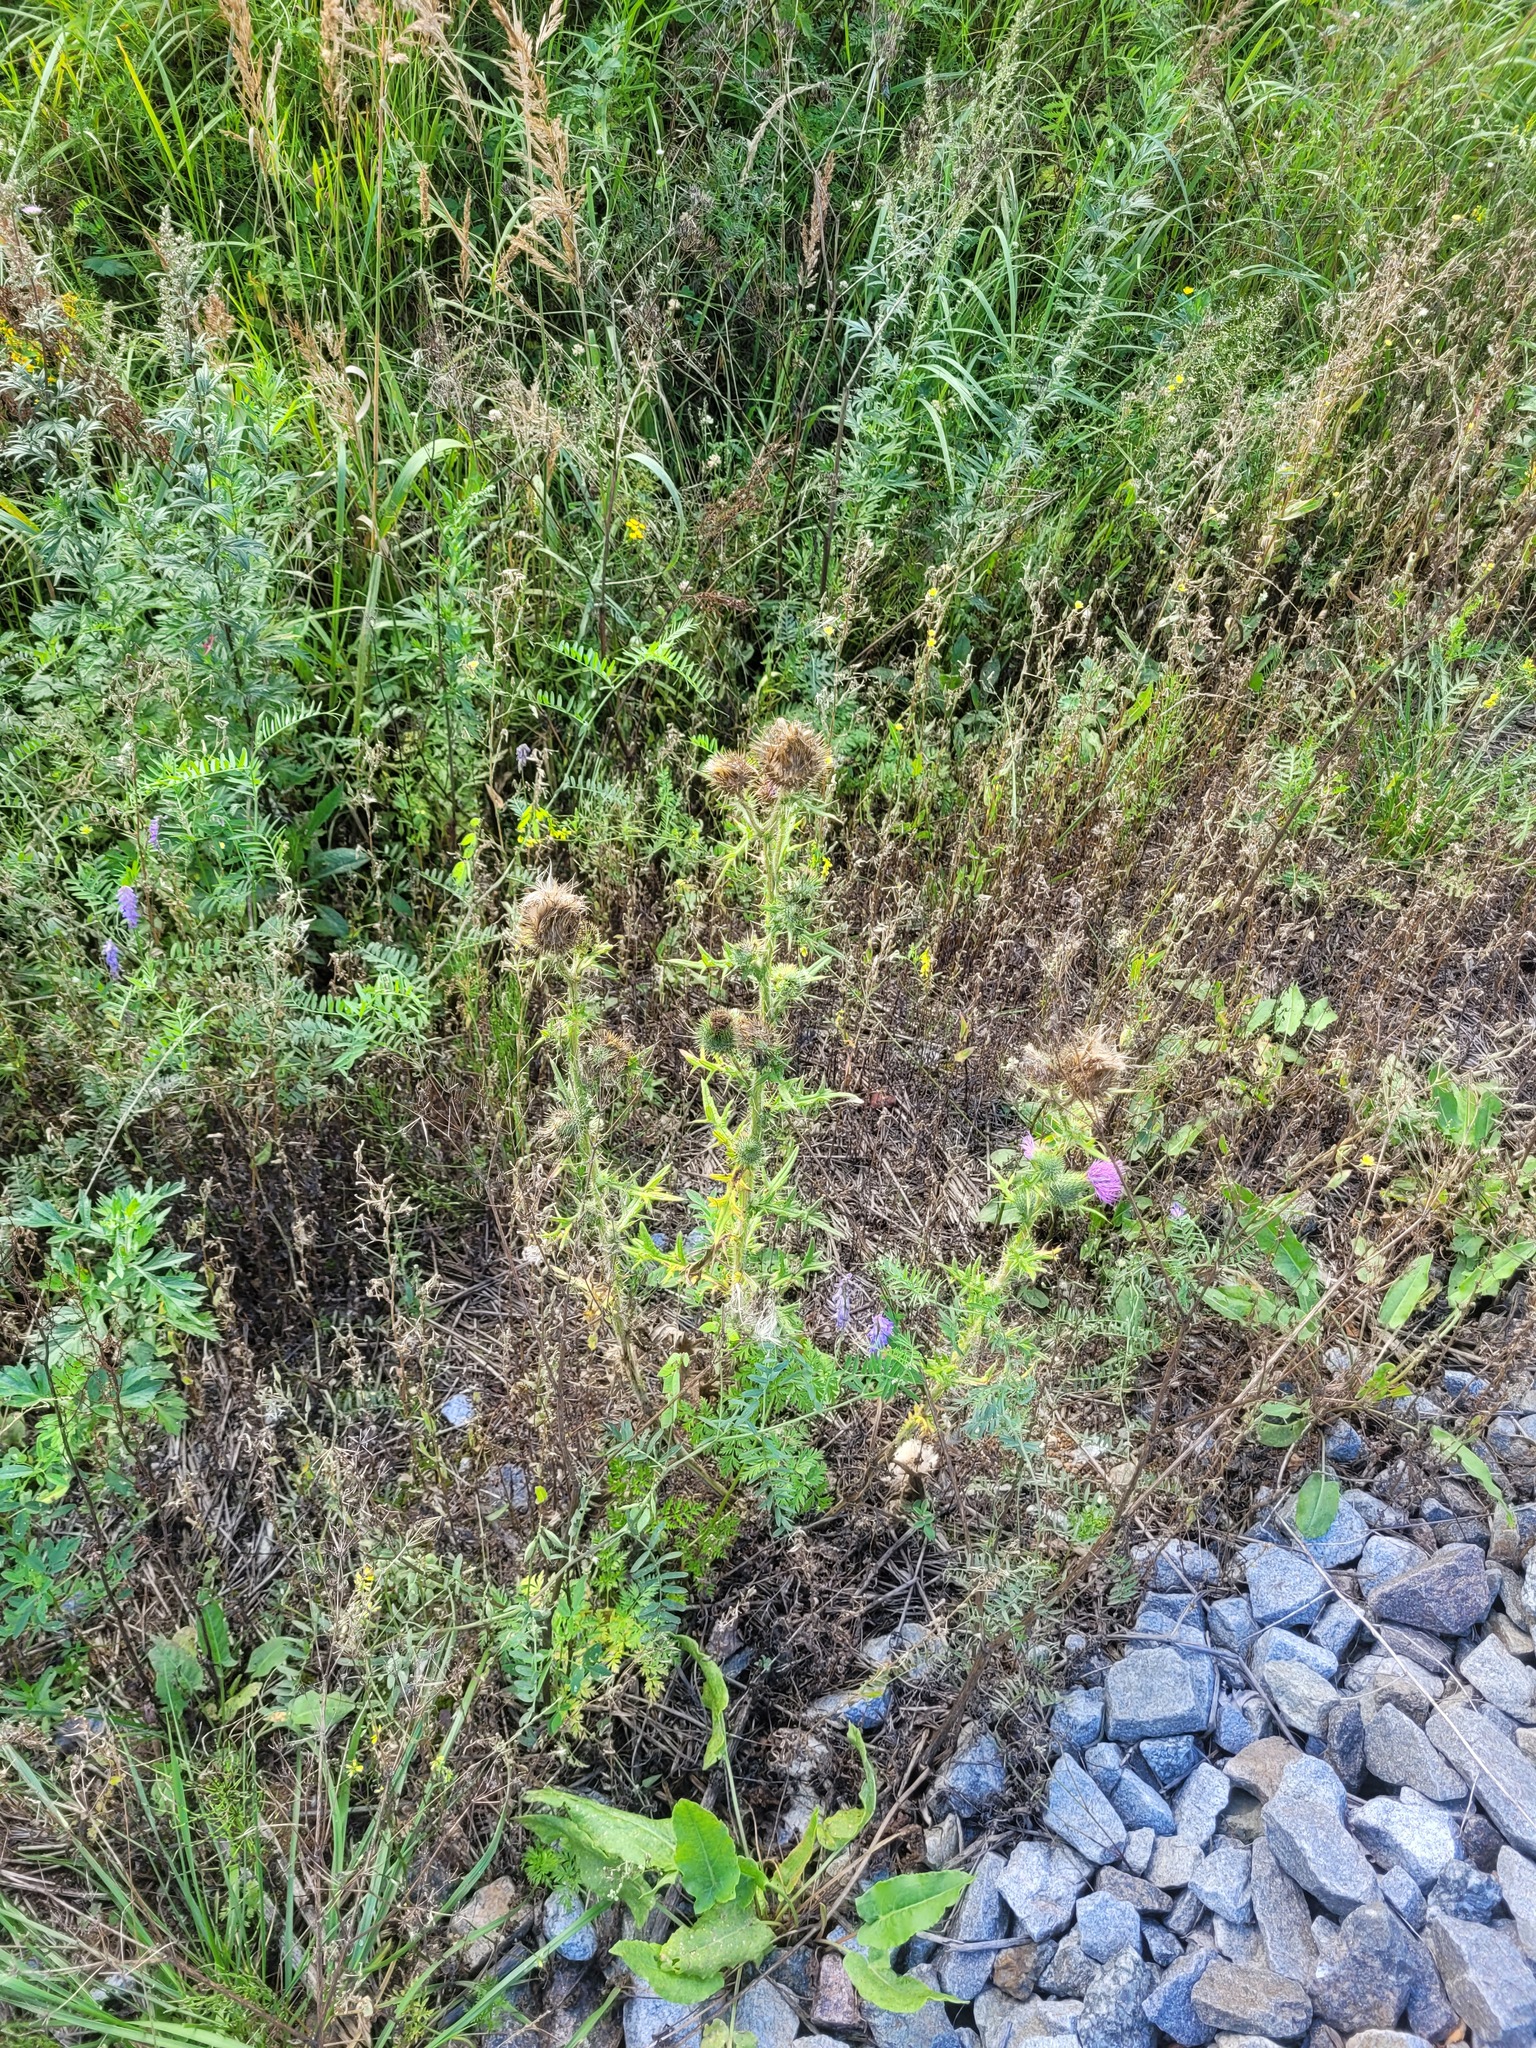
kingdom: Plantae
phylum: Tracheophyta
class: Magnoliopsida
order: Asterales
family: Asteraceae
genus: Cirsium
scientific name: Cirsium vulgare
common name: Bull thistle
